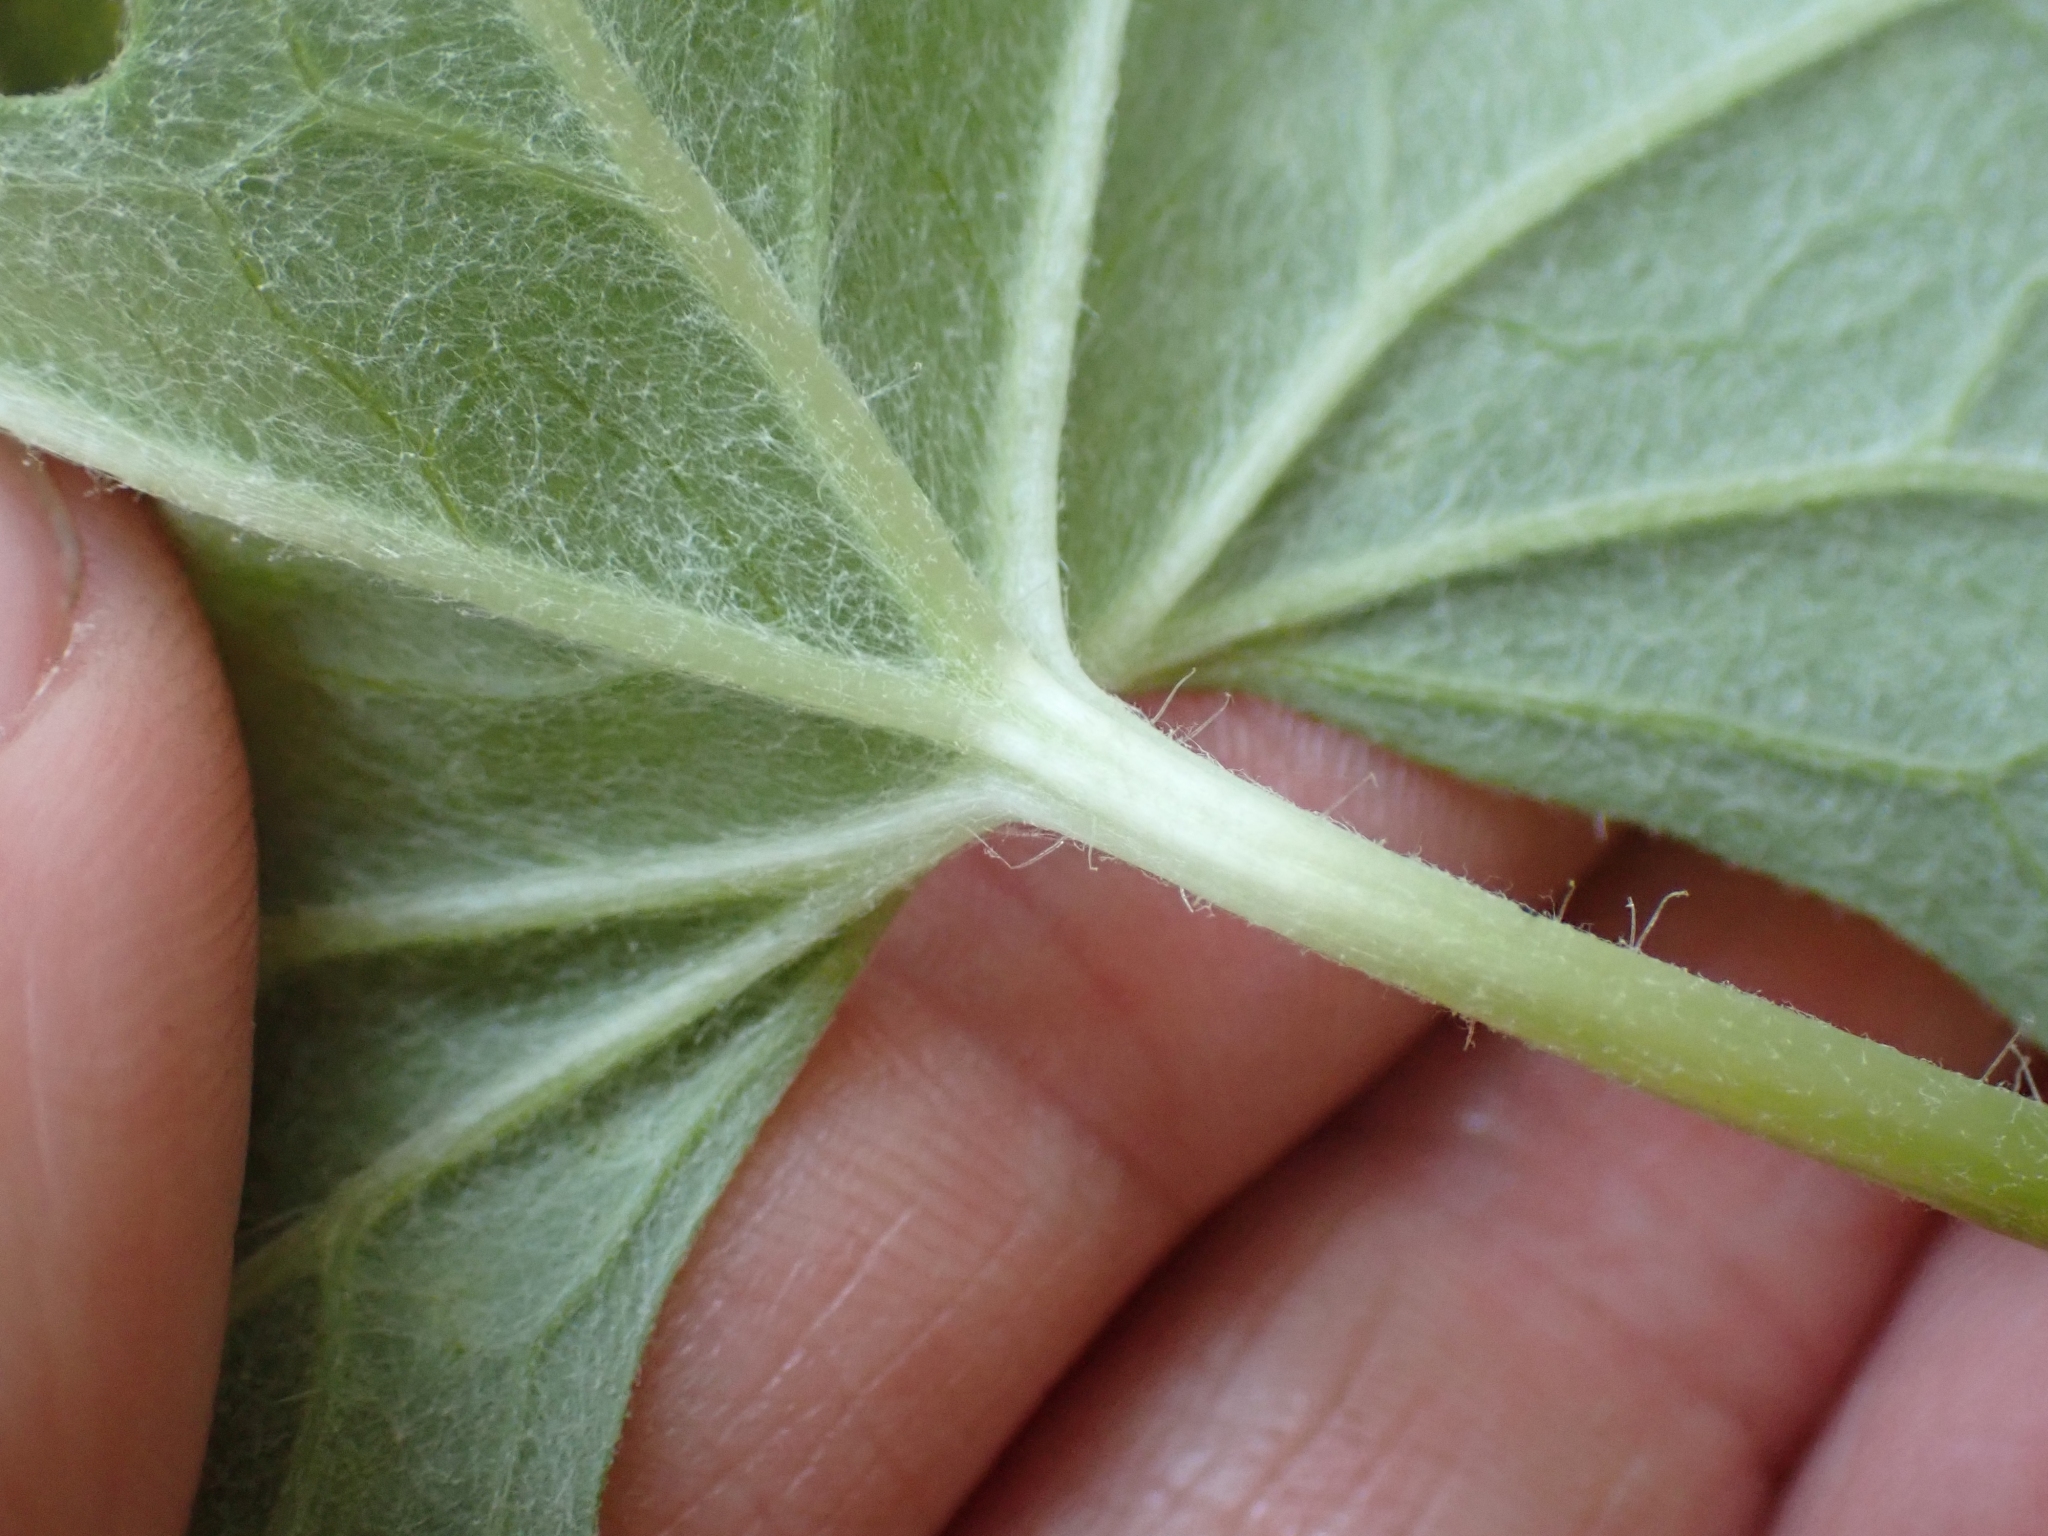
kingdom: Plantae
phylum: Tracheophyta
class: Magnoliopsida
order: Asterales
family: Asteraceae
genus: Petasites
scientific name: Petasites frigidus
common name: Arctic butterbur
